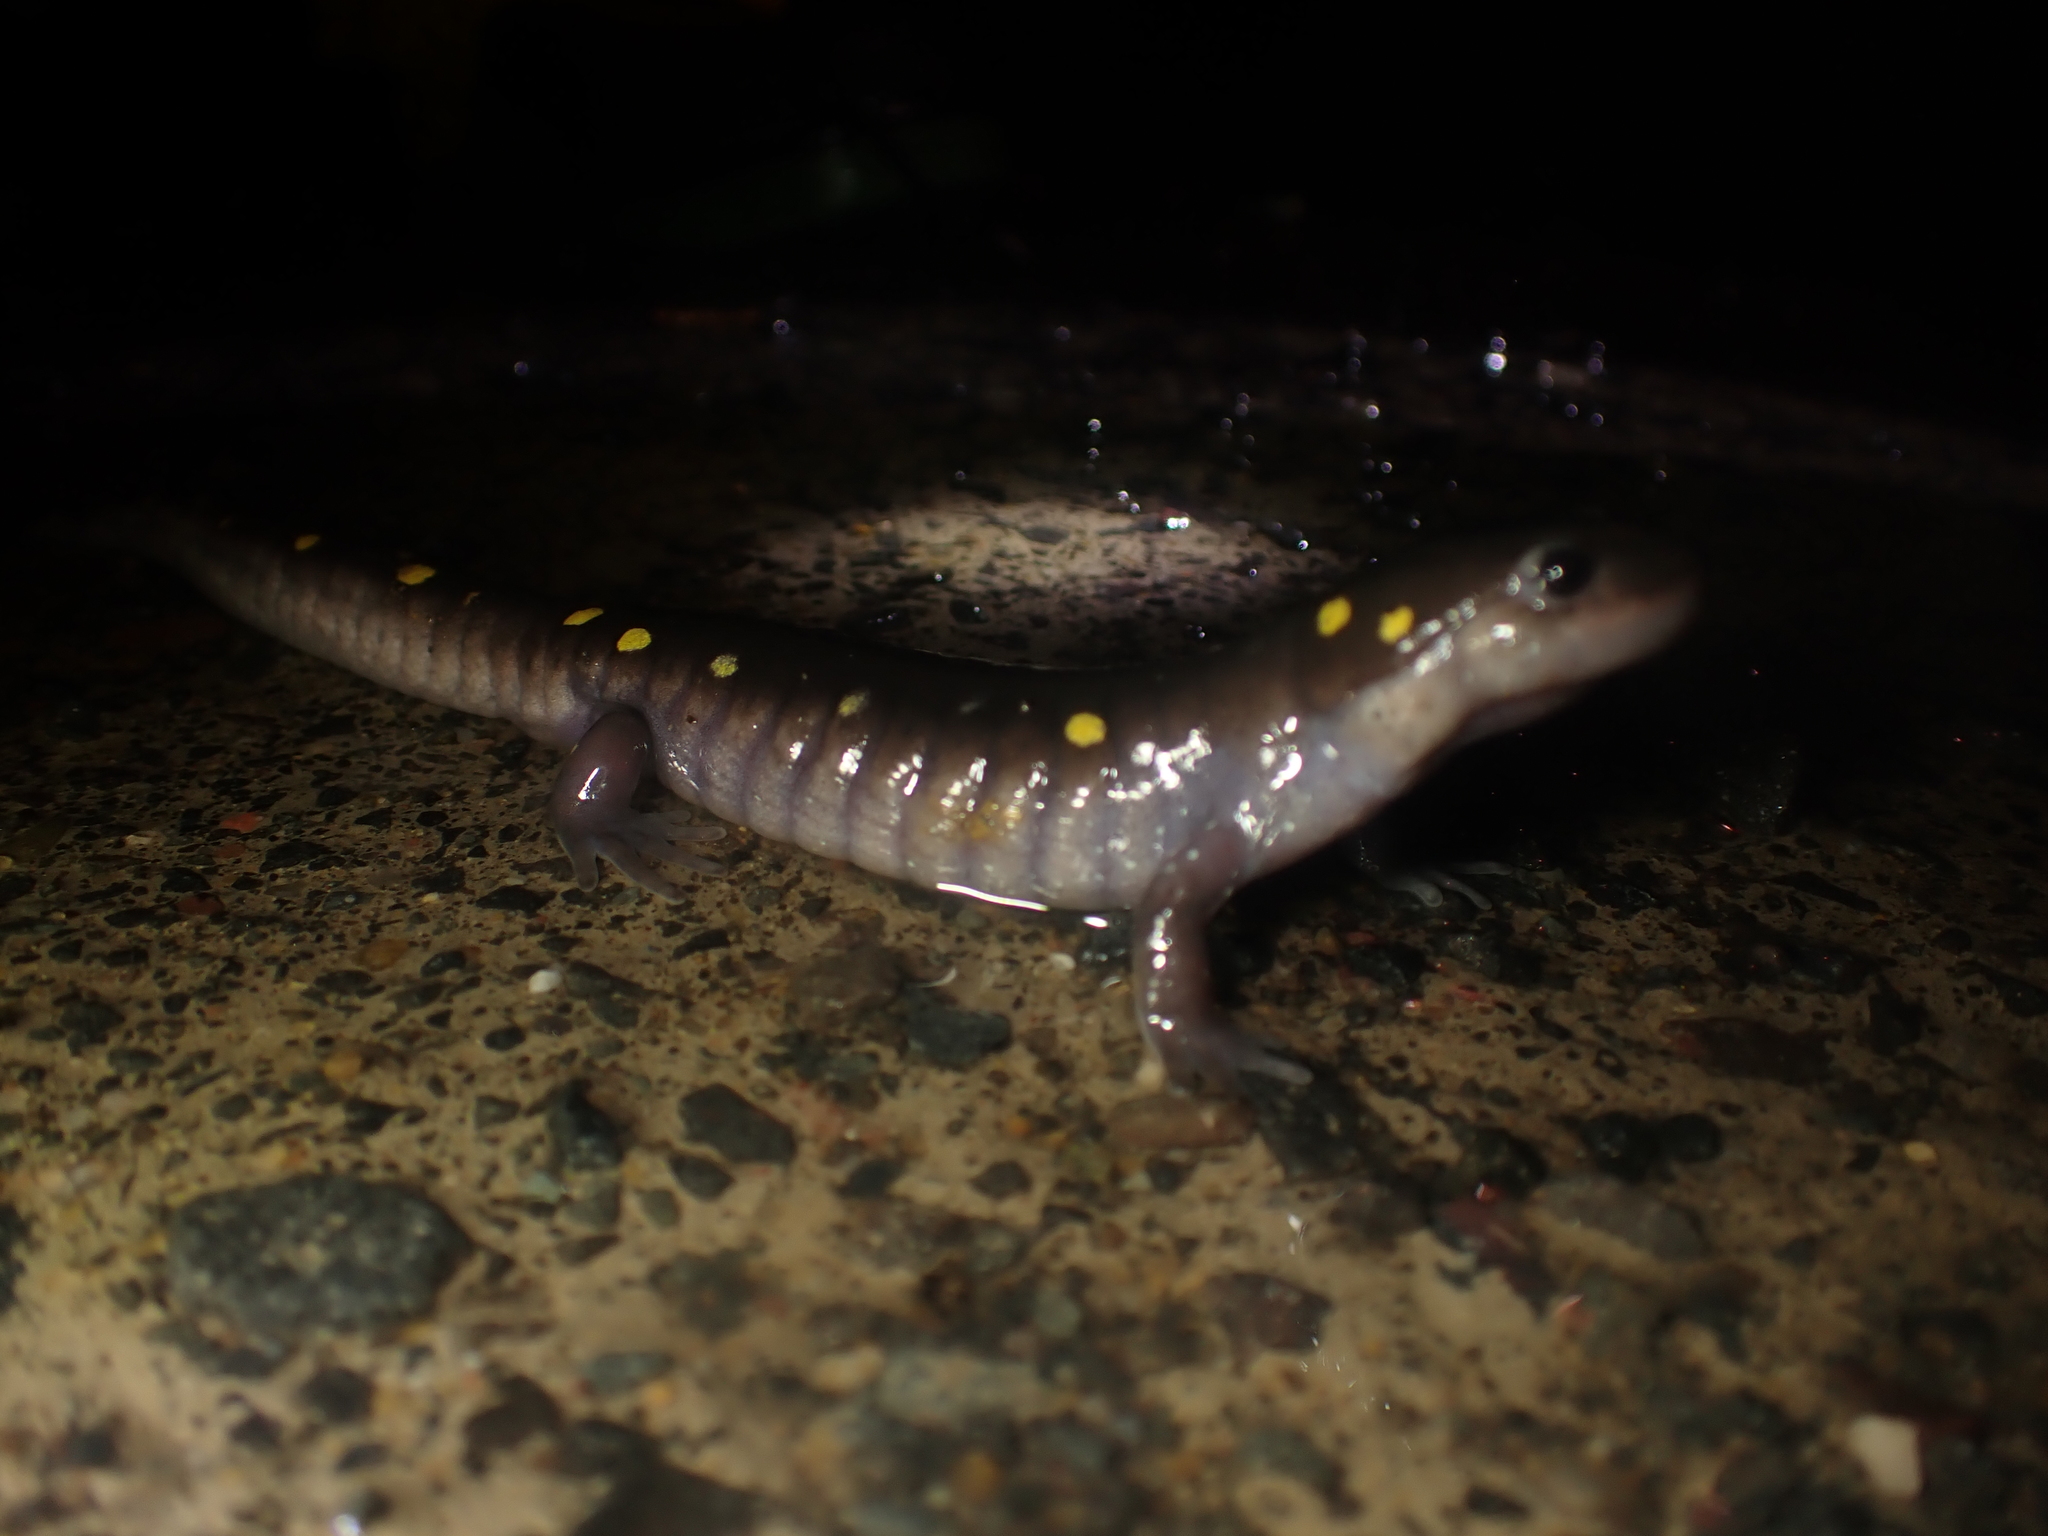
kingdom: Animalia
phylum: Chordata
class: Amphibia
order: Caudata
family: Ambystomatidae
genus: Ambystoma
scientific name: Ambystoma maculatum
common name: Spotted salamander
